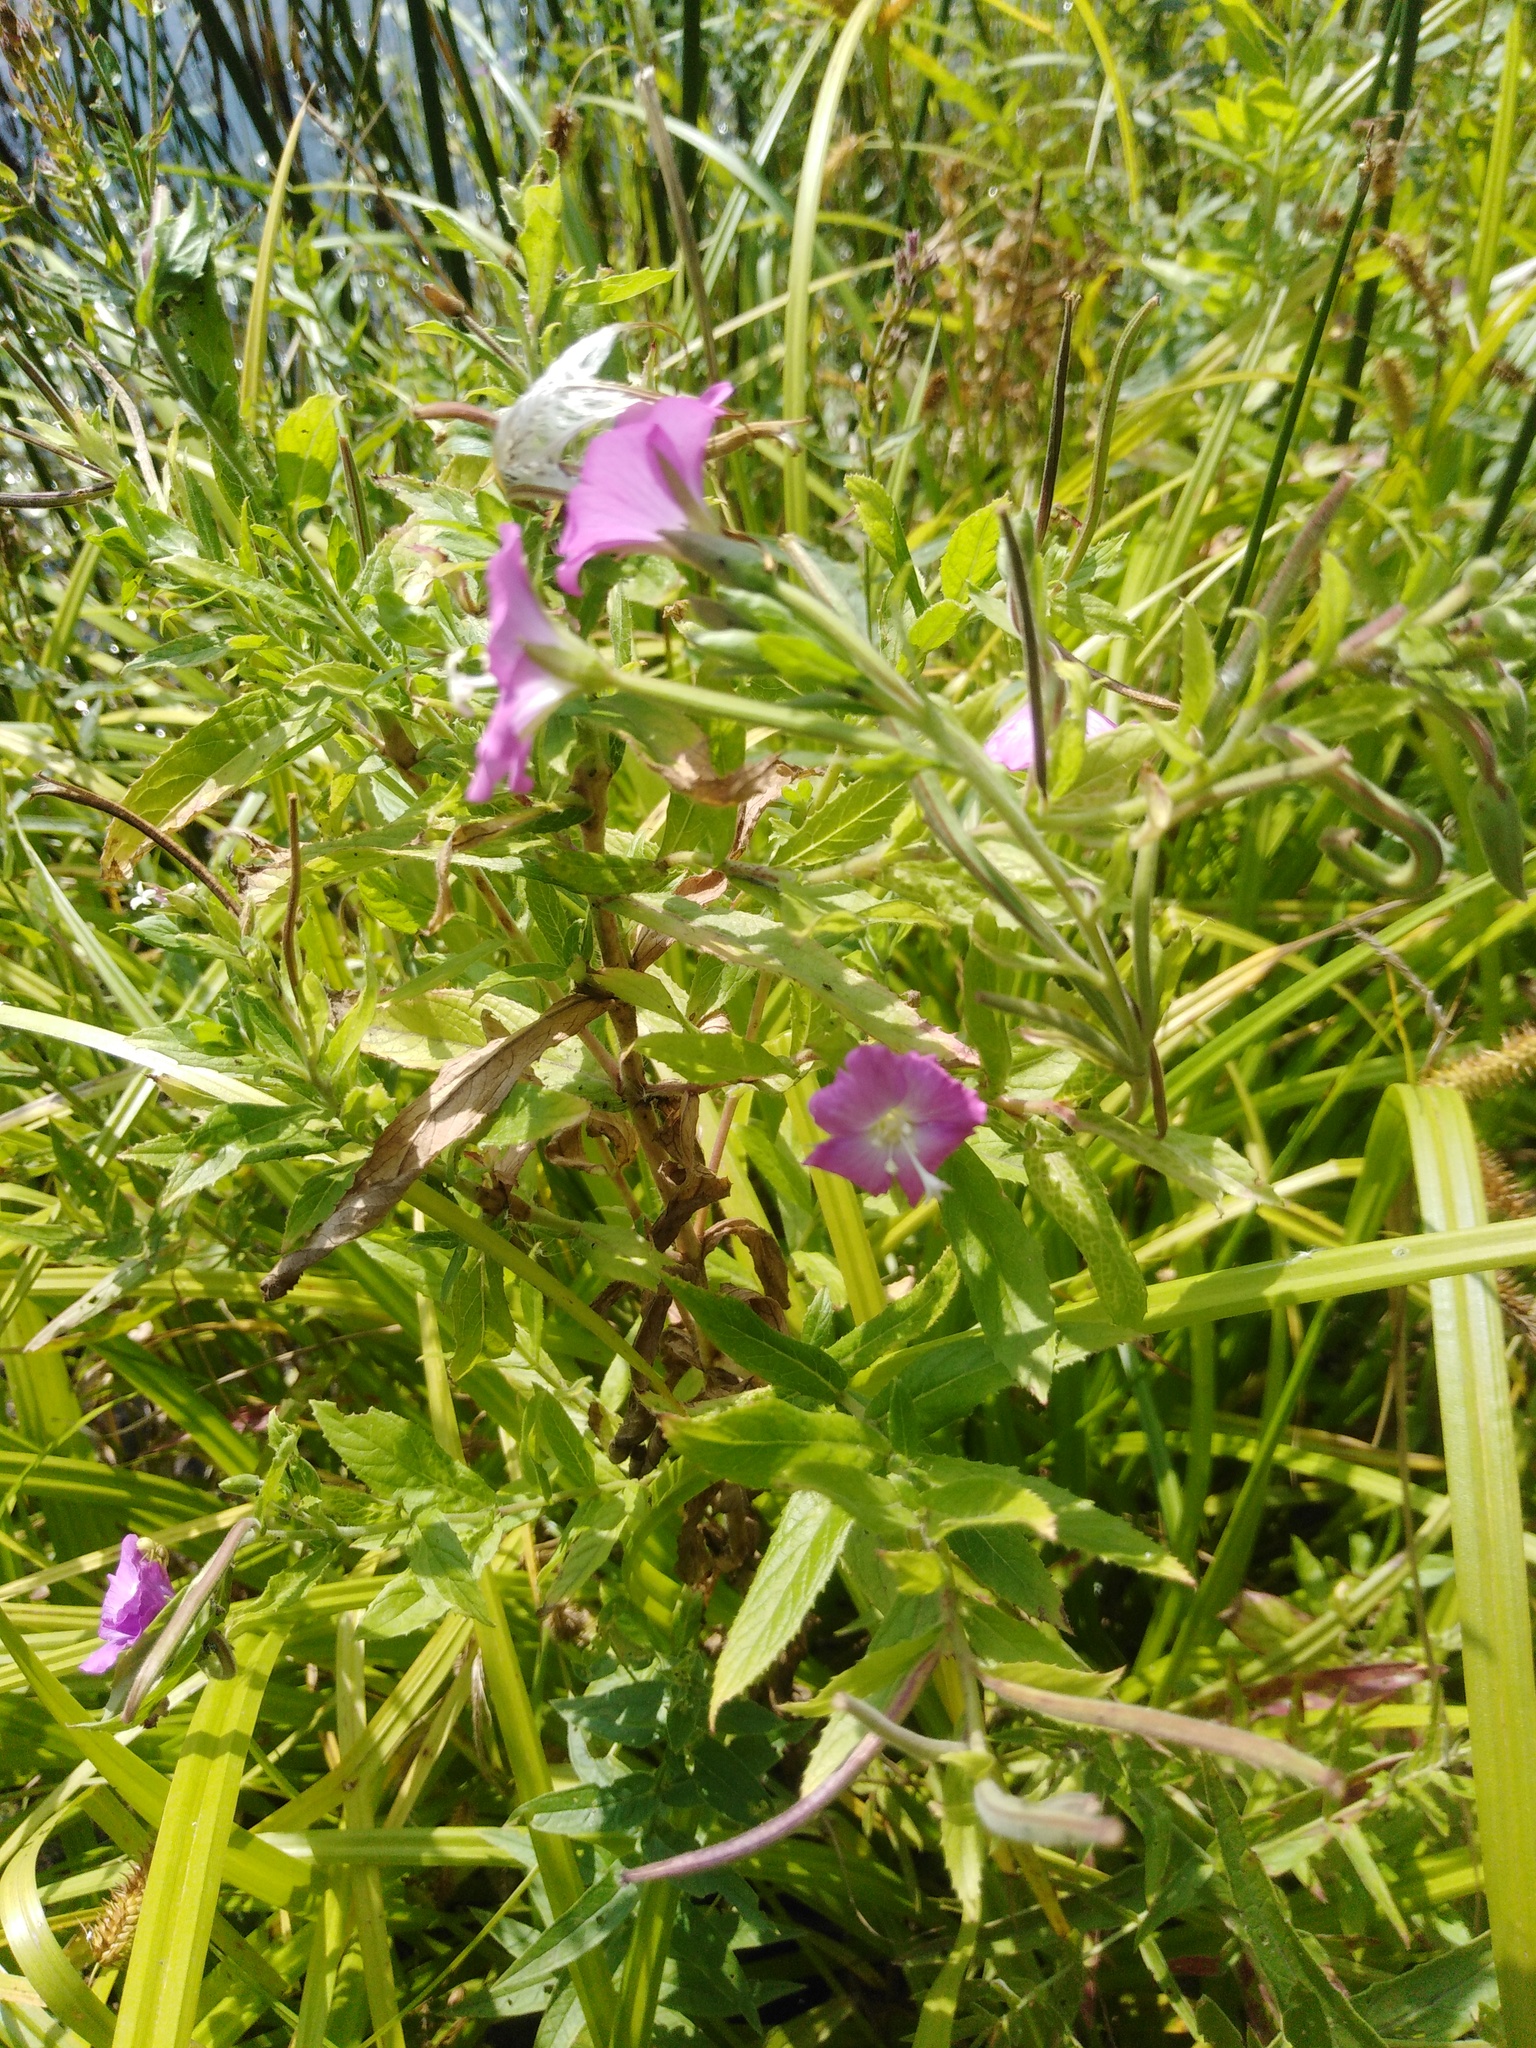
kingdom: Plantae
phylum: Tracheophyta
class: Magnoliopsida
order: Myrtales
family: Onagraceae
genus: Epilobium
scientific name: Epilobium hirsutum
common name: Great willowherb
